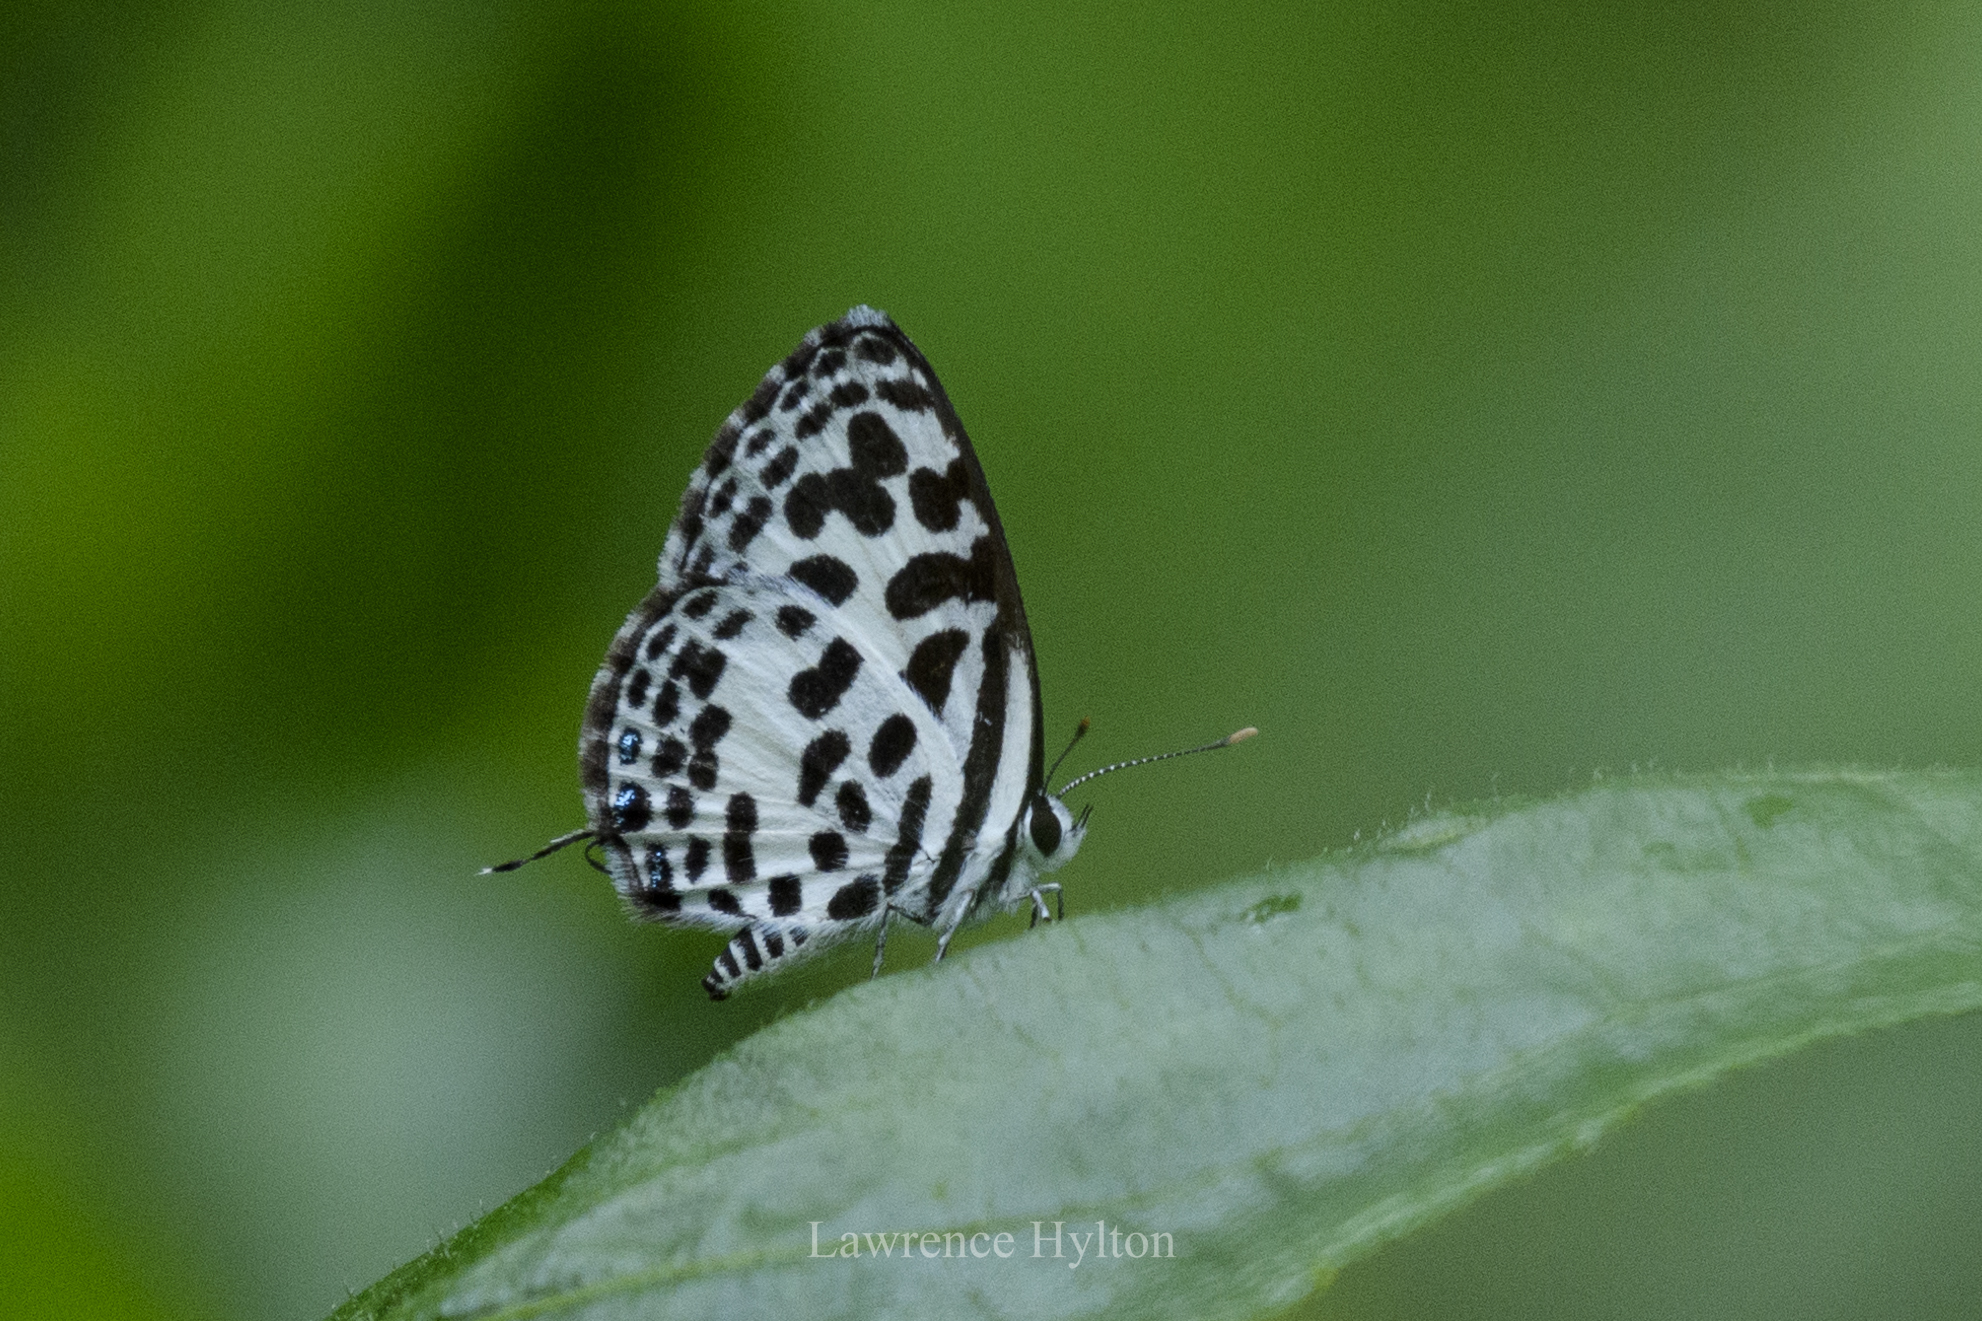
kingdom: Animalia
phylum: Arthropoda
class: Insecta
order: Lepidoptera
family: Lycaenidae
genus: Castalius
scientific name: Castalius rosimon
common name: Common pierrot
